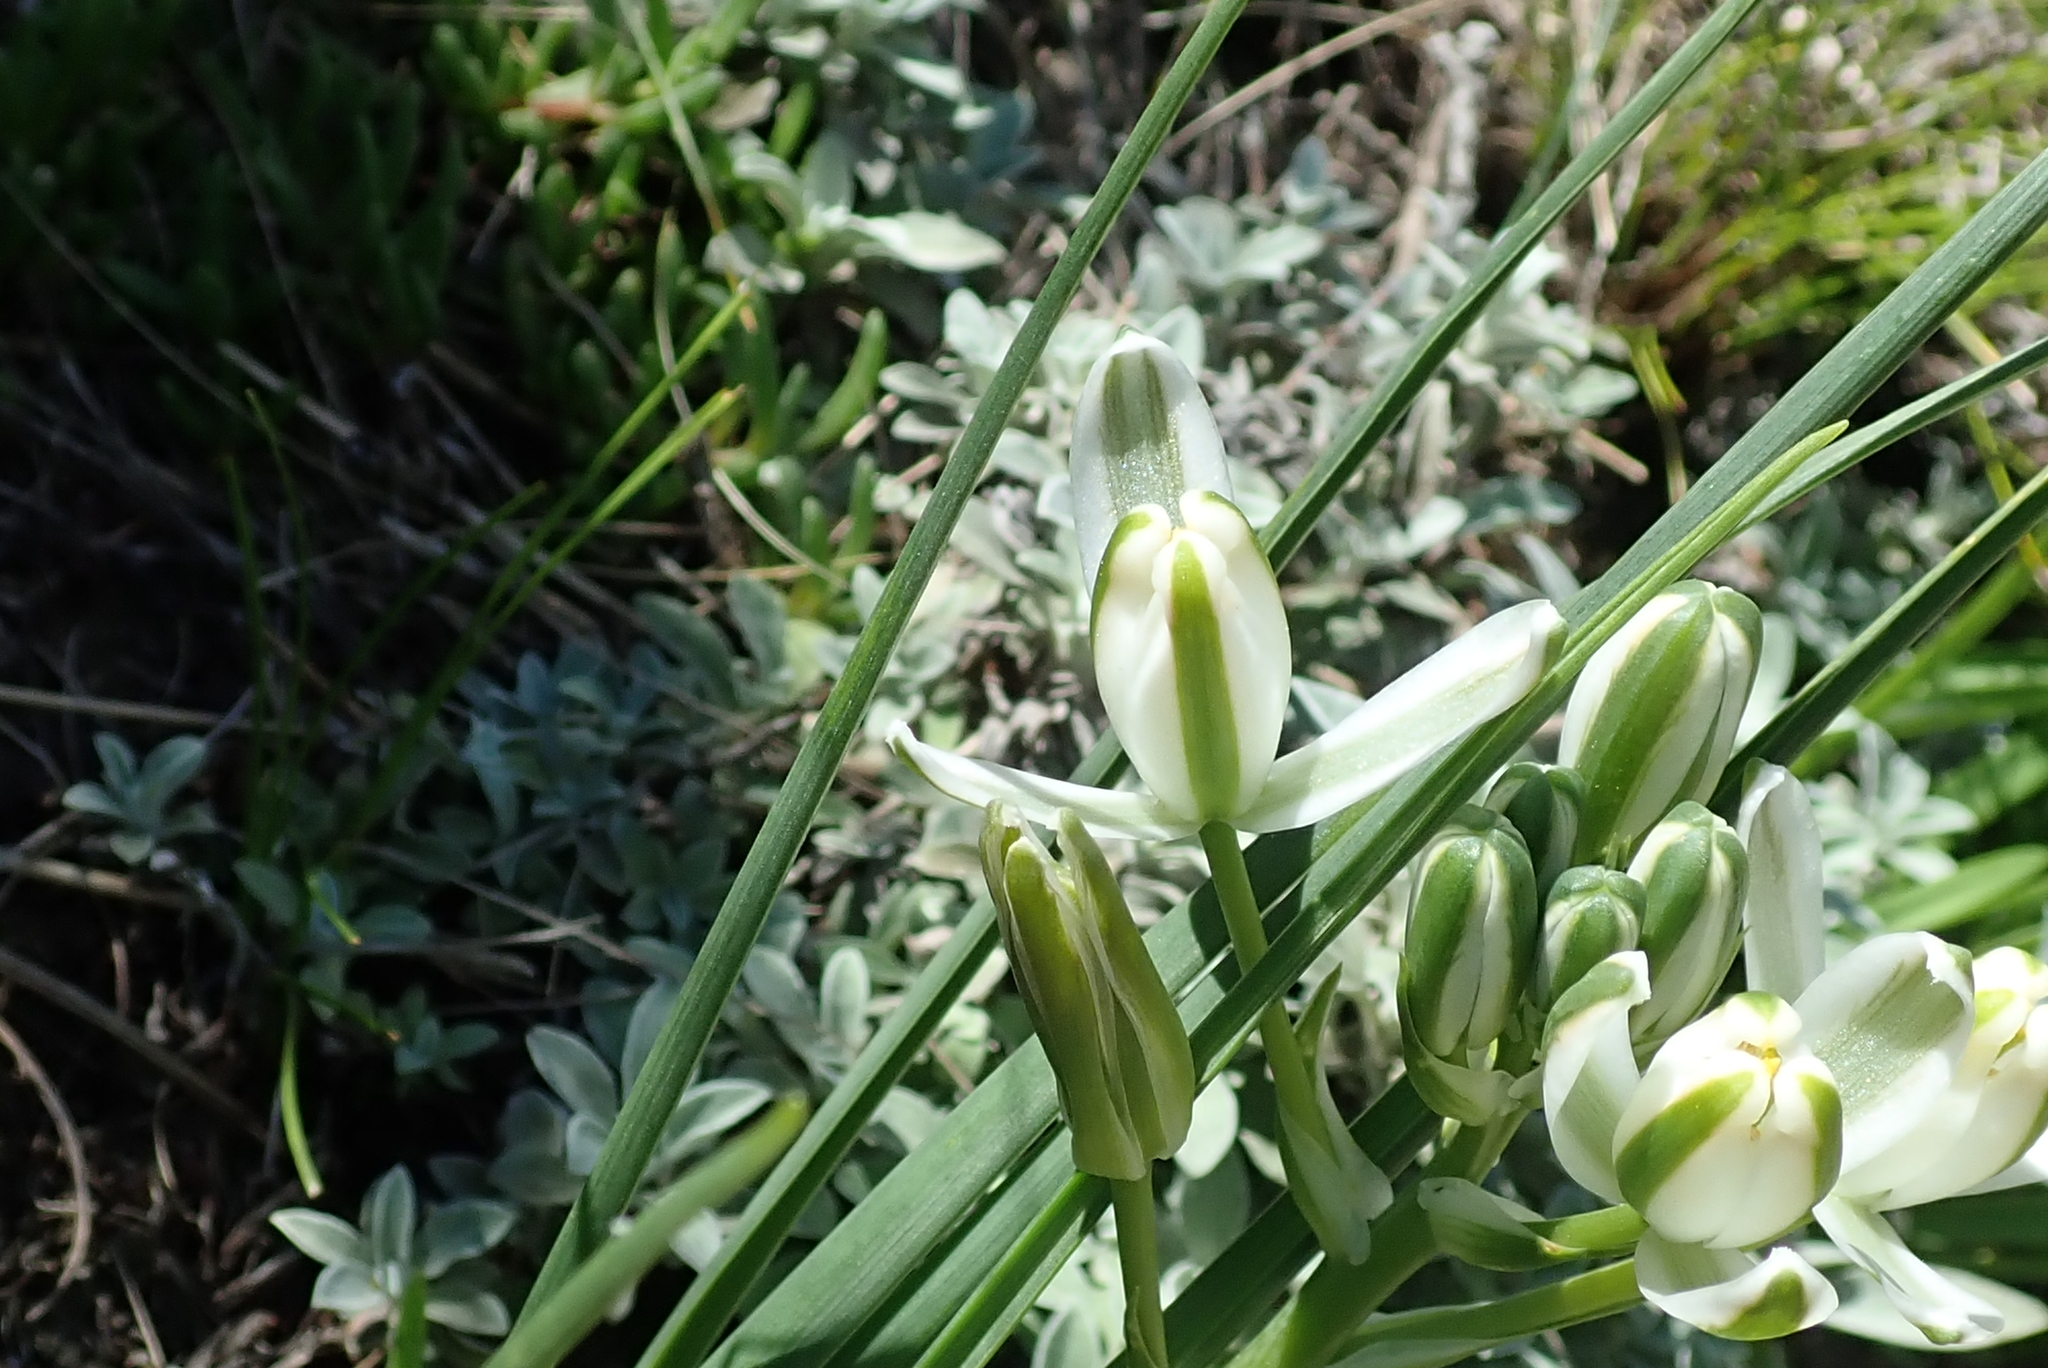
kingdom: Plantae
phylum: Tracheophyta
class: Liliopsida
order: Asparagales
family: Asparagaceae
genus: Albuca
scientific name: Albuca setosa
